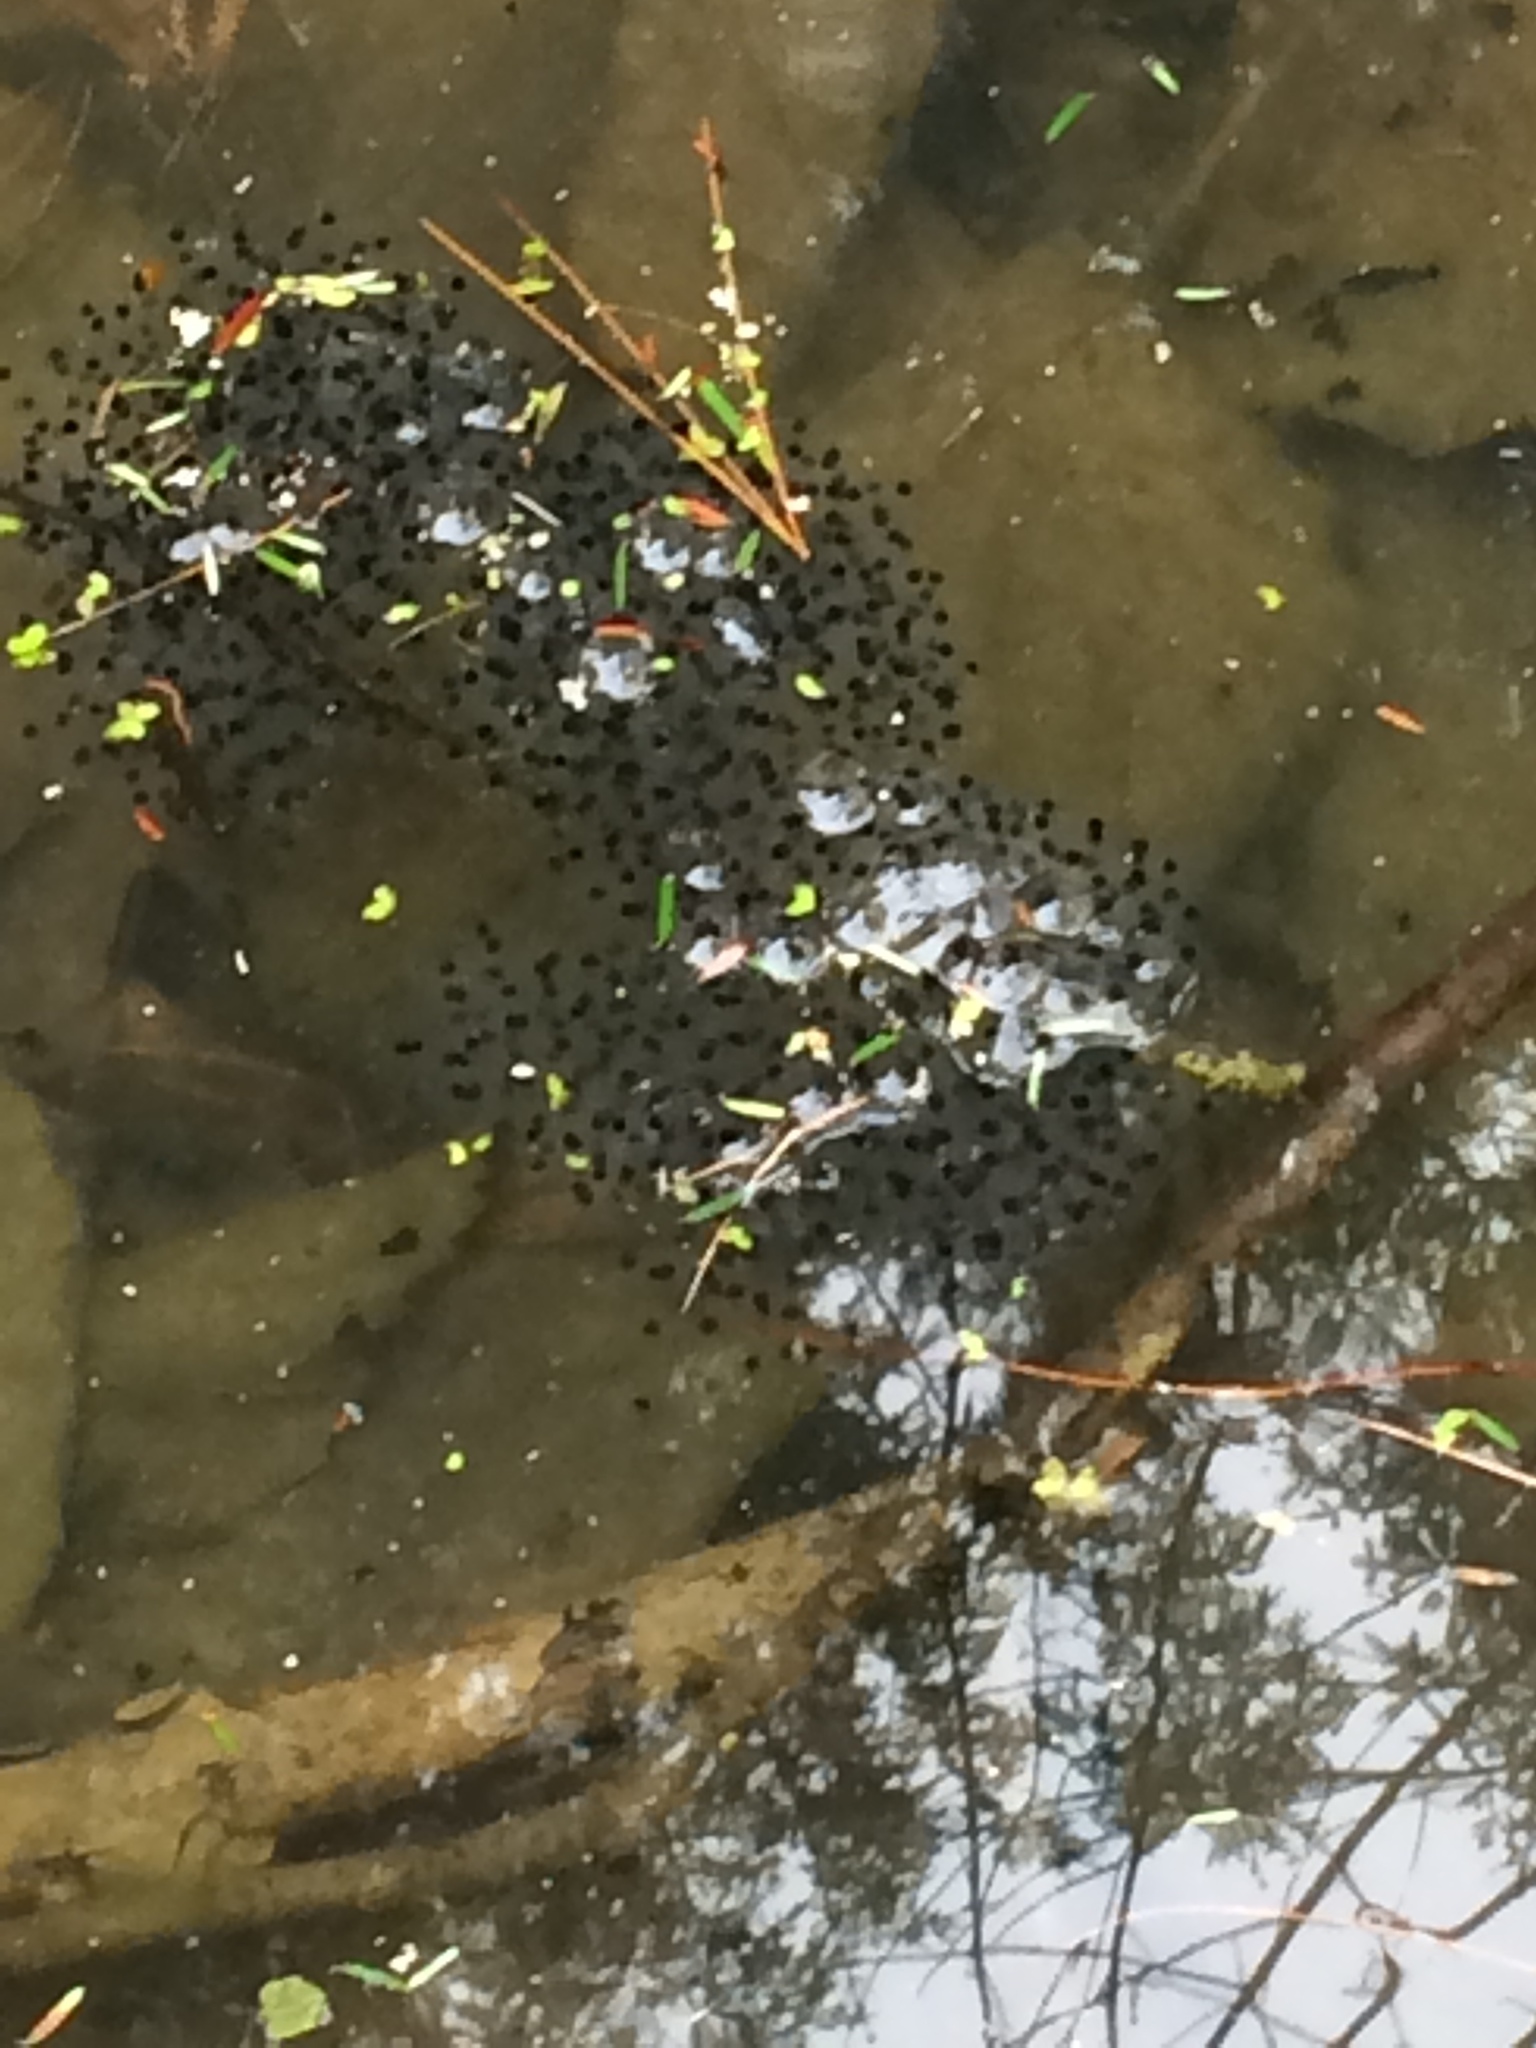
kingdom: Animalia
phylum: Chordata
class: Amphibia
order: Anura
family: Ranidae
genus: Lithobates
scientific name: Lithobates sylvaticus
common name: Wood frog
